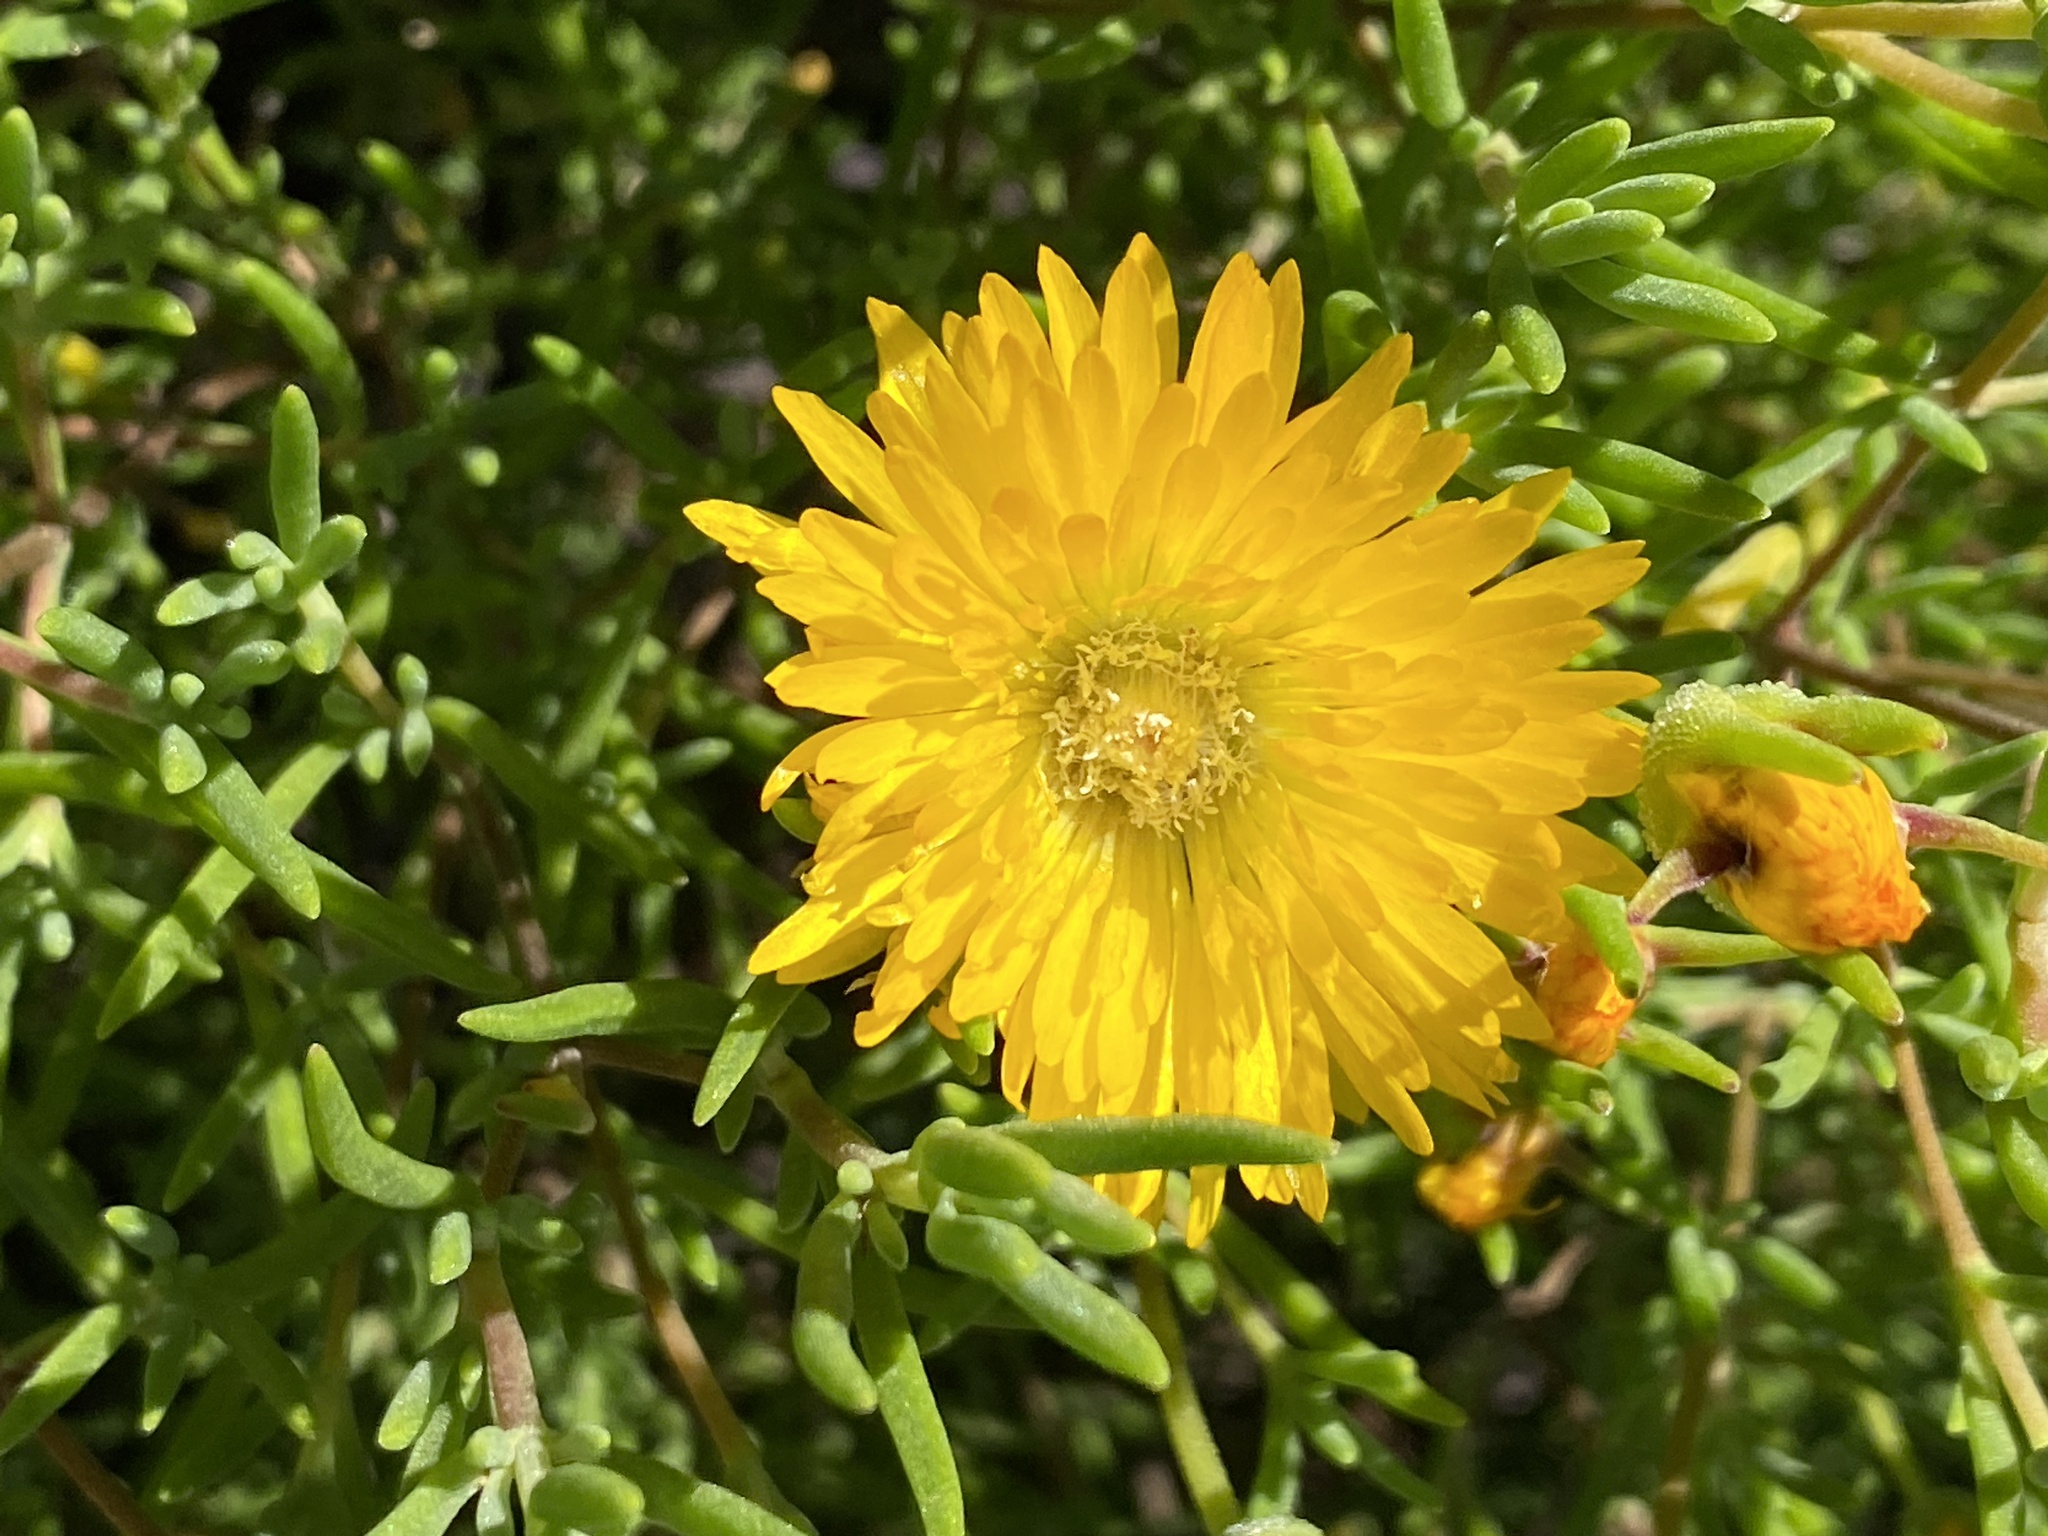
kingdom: Plantae
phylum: Tracheophyta
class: Magnoliopsida
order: Caryophyllales
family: Aizoaceae
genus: Drosanthemum
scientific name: Drosanthemum acuminatum
